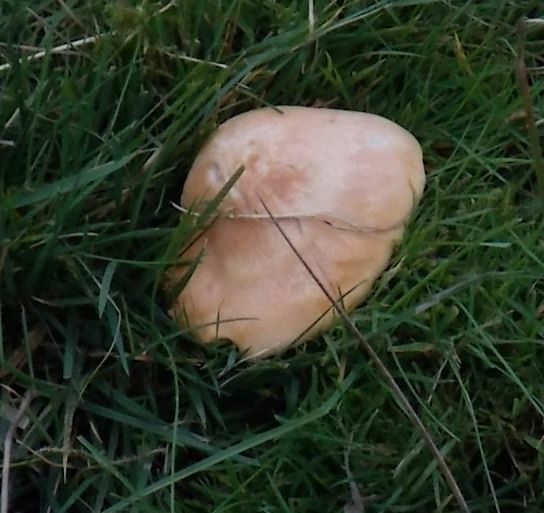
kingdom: Fungi
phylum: Basidiomycota
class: Agaricomycetes
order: Agaricales
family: Hygrophoraceae
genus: Cuphophyllus
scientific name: Cuphophyllus pratensis
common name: Meadow waxcap
